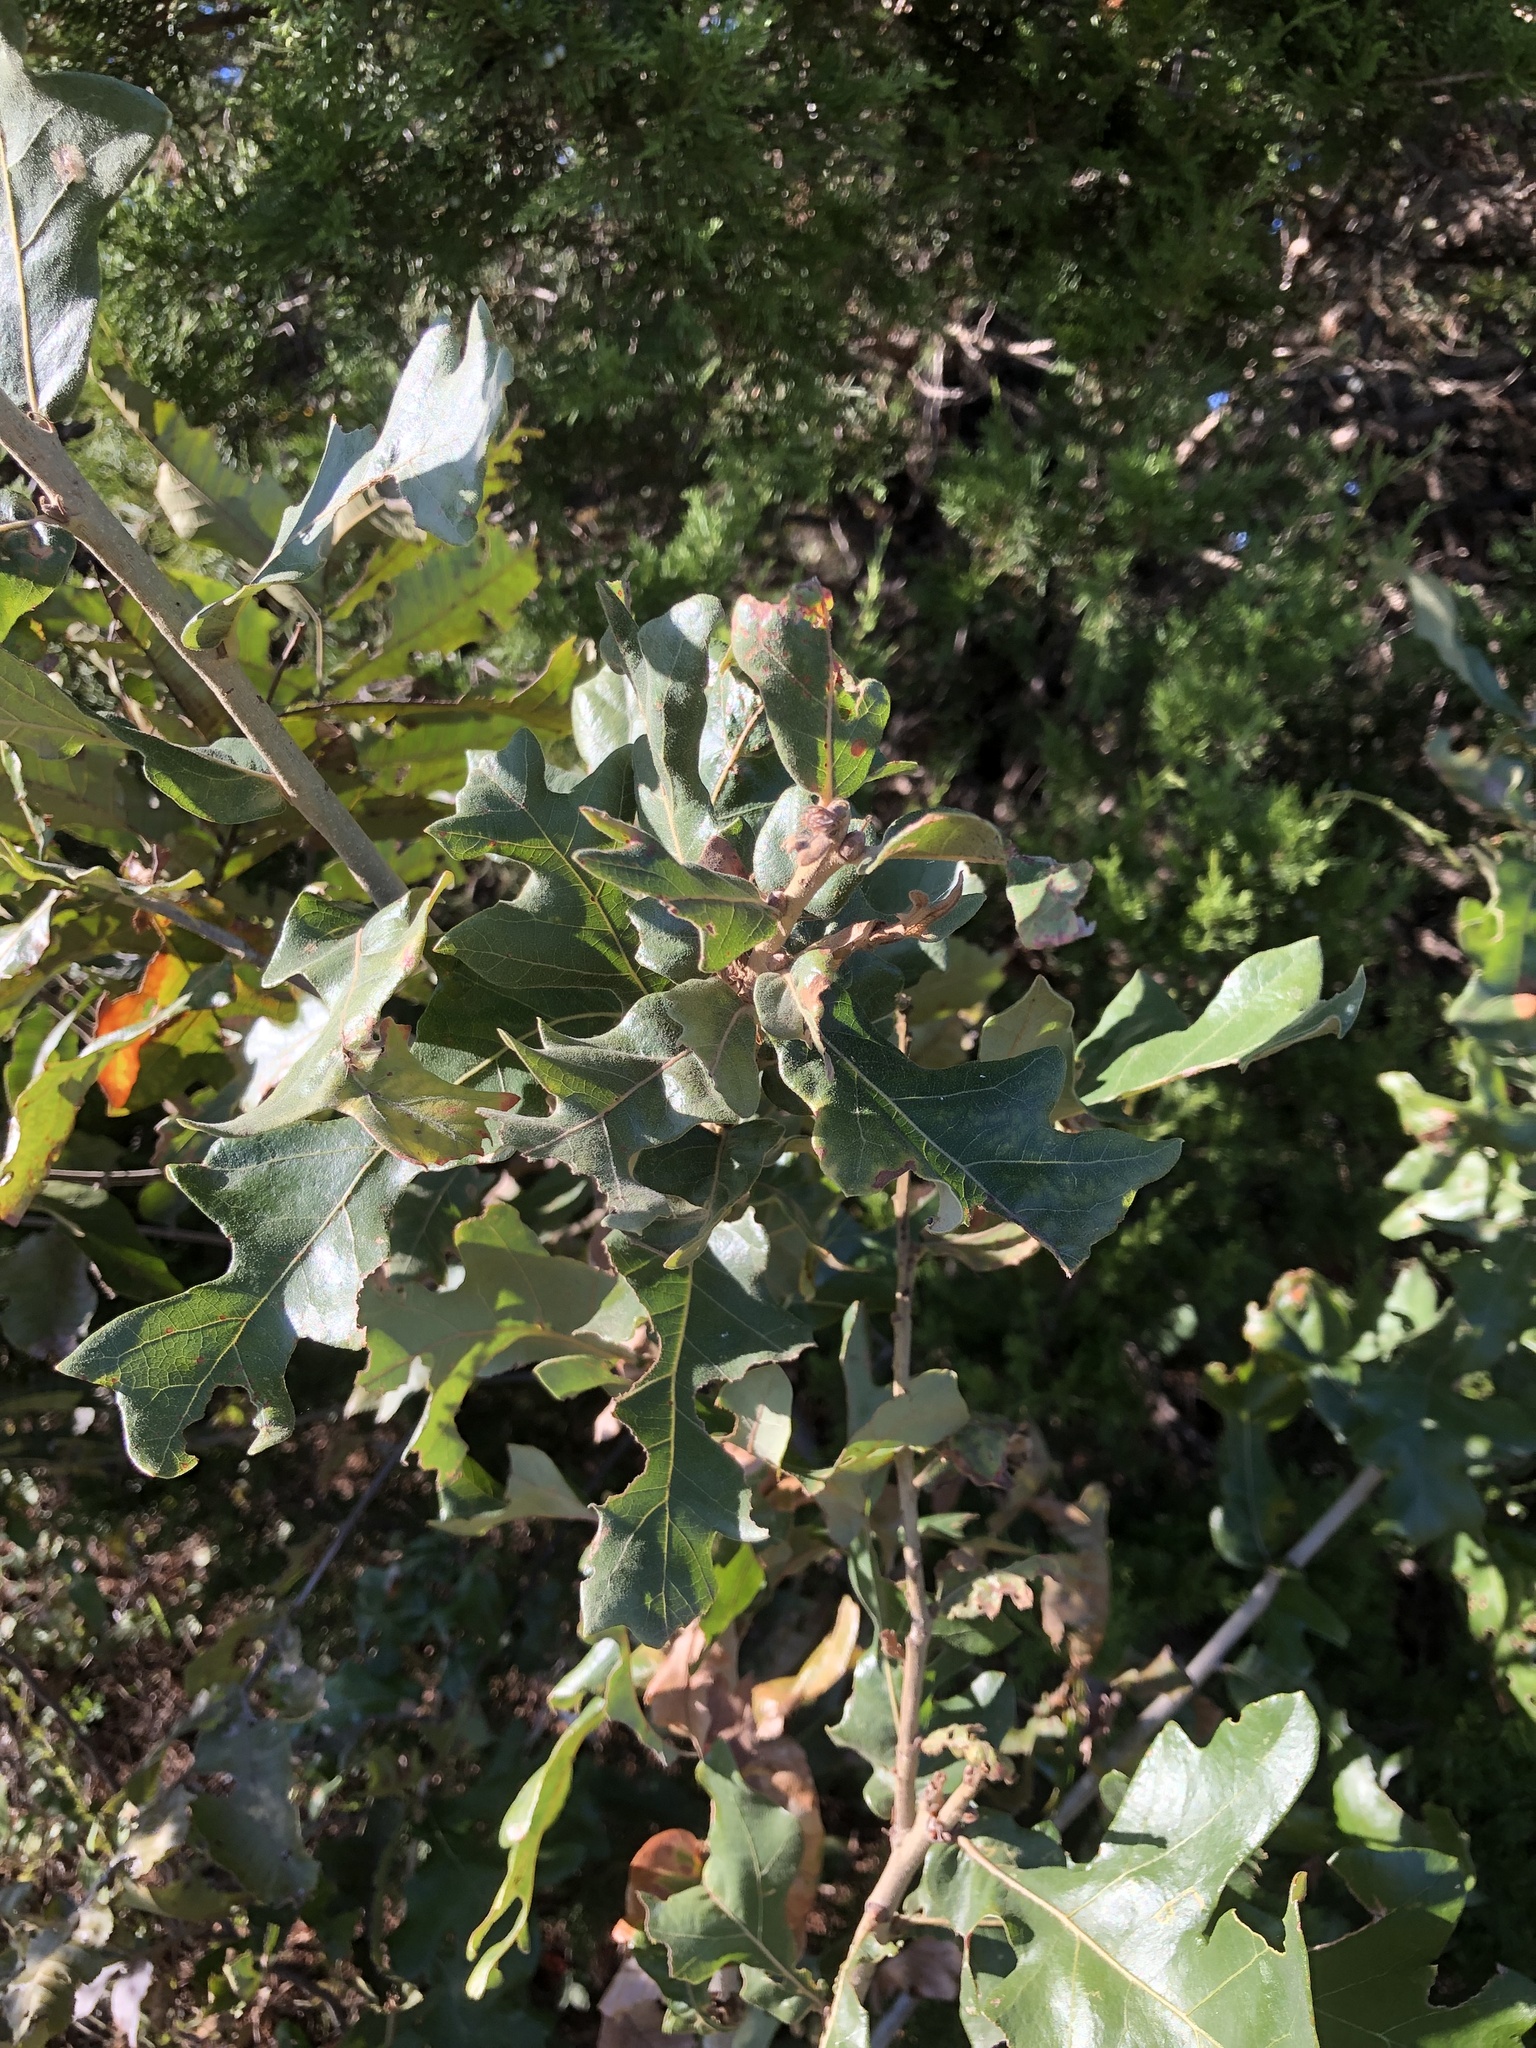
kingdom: Plantae
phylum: Tracheophyta
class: Magnoliopsida
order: Fagales
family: Fagaceae
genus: Quercus
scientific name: Quercus stellata
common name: Post oak
